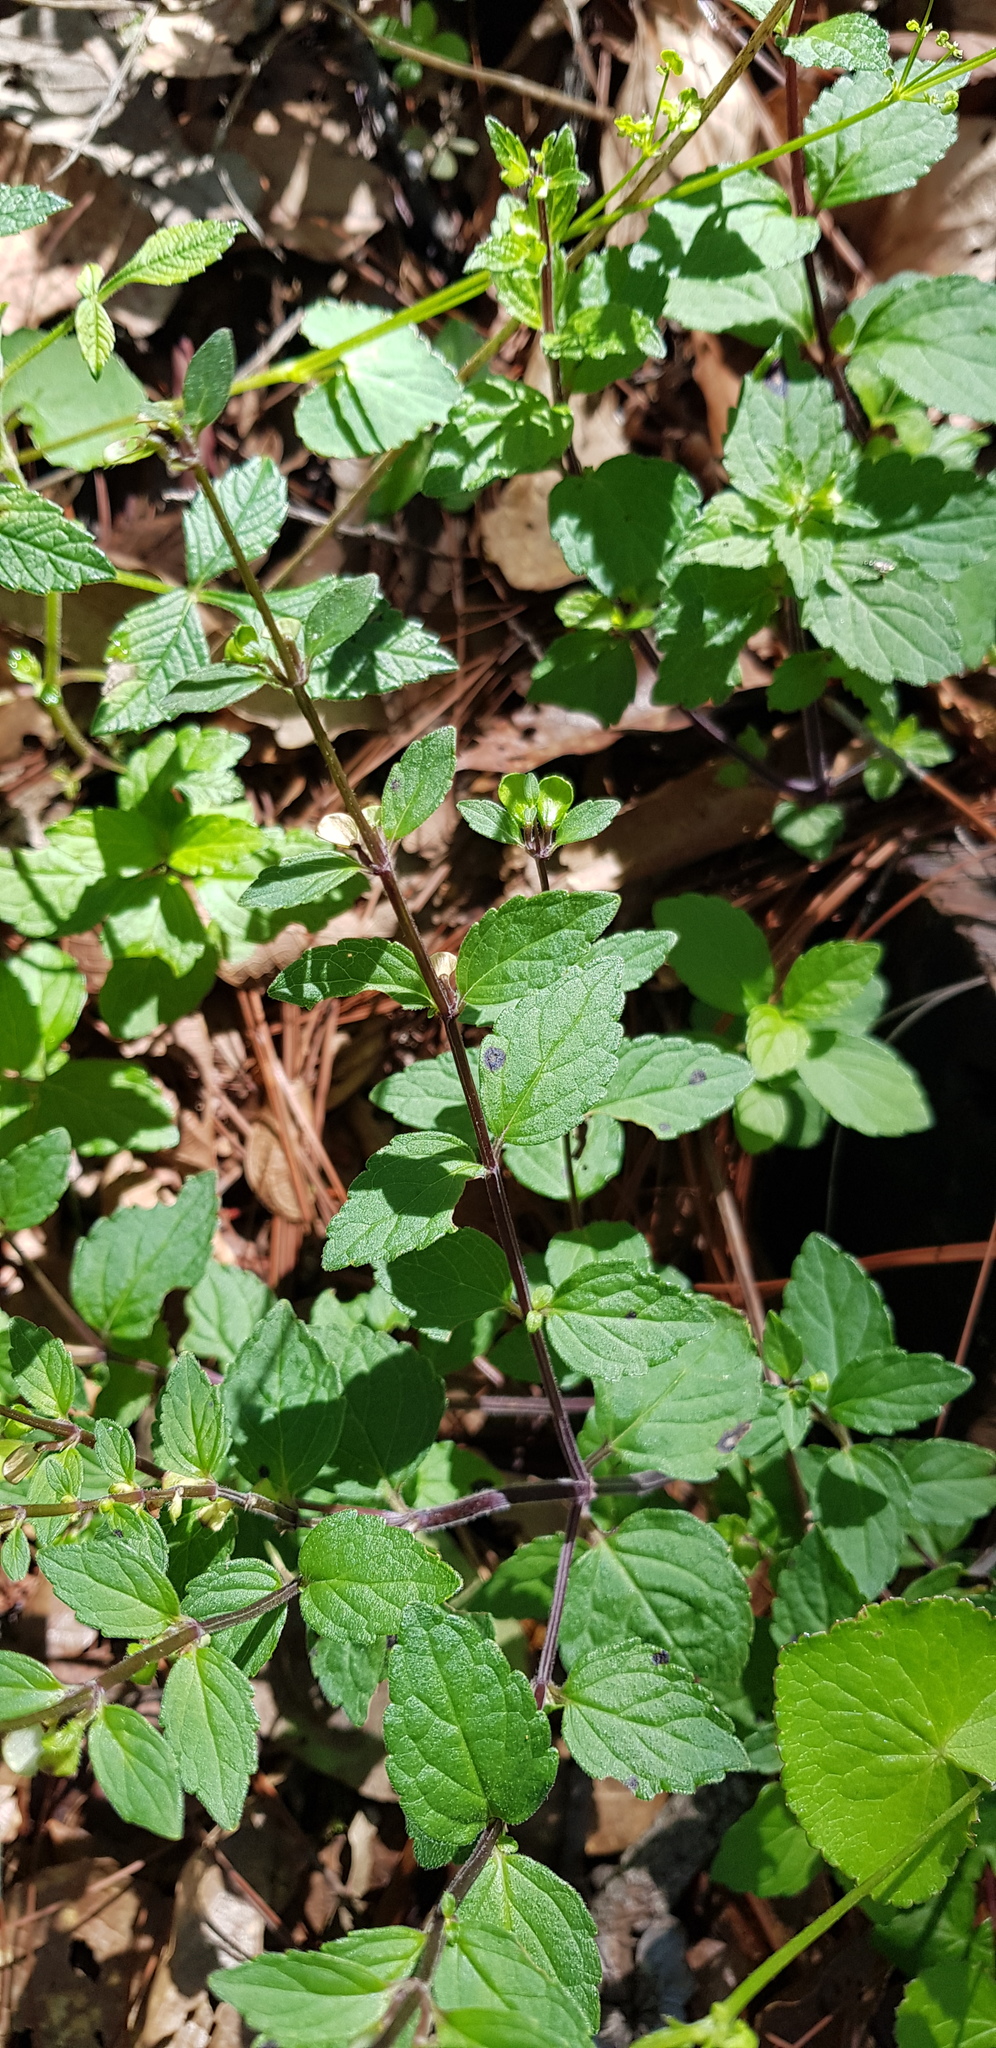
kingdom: Plantae
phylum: Tracheophyta
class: Magnoliopsida
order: Lamiales
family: Lamiaceae
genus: Scutellaria
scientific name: Scutellaria dumetorum
